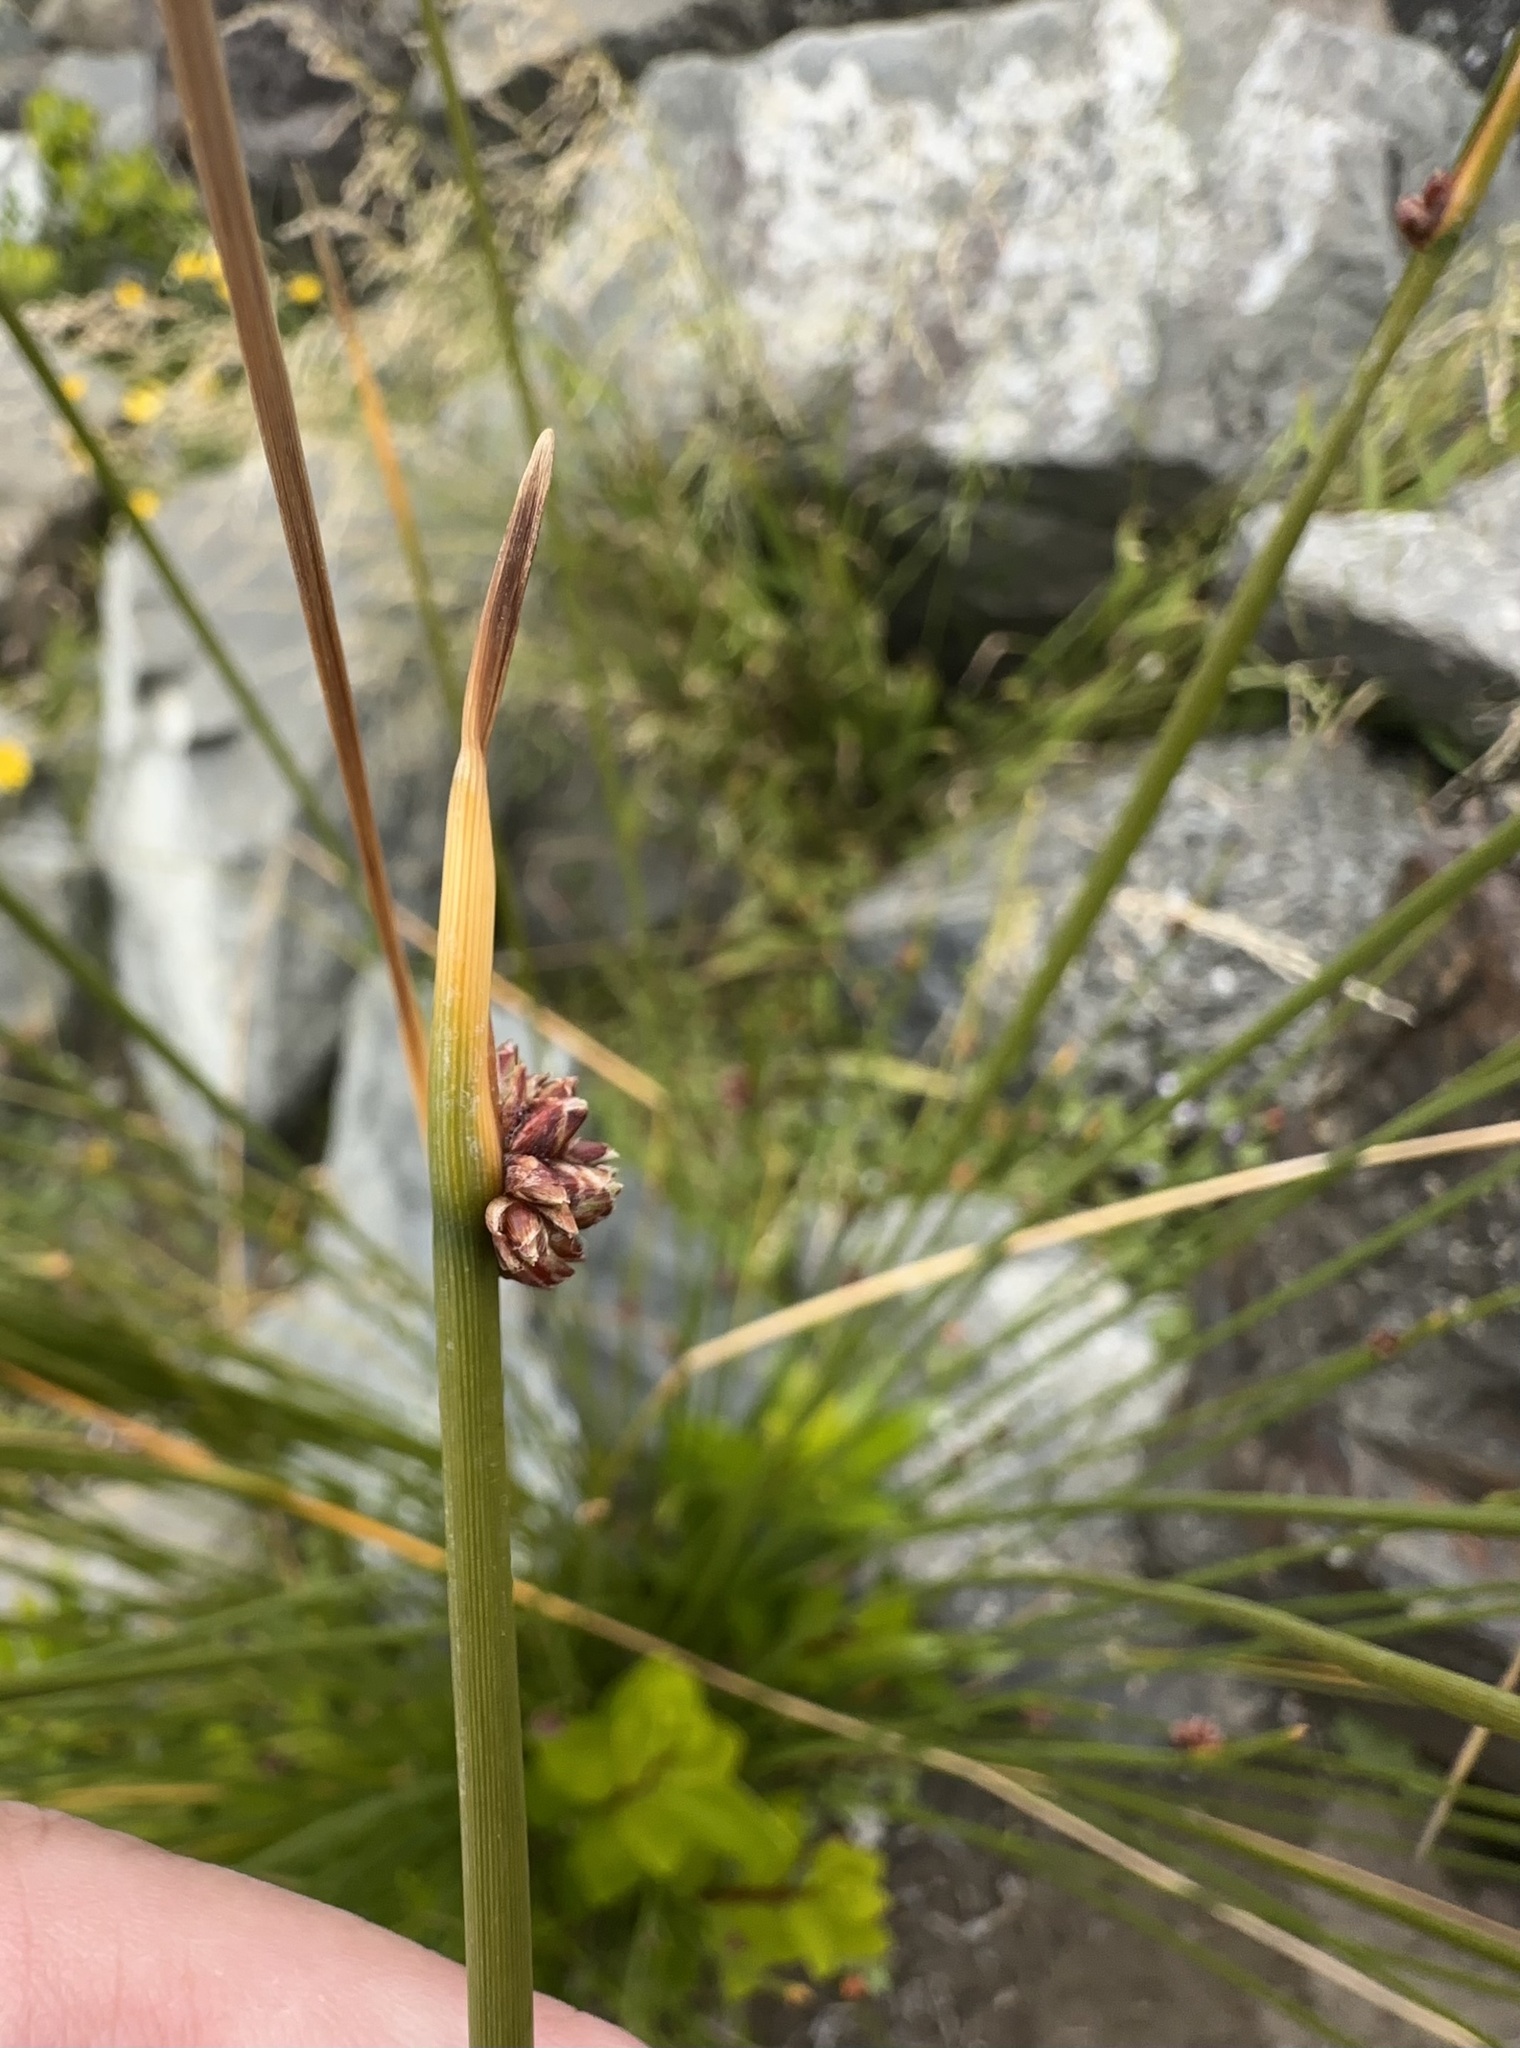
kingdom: Plantae
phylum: Tracheophyta
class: Liliopsida
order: Poales
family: Cyperaceae
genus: Ficinia
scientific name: Ficinia nodosa
